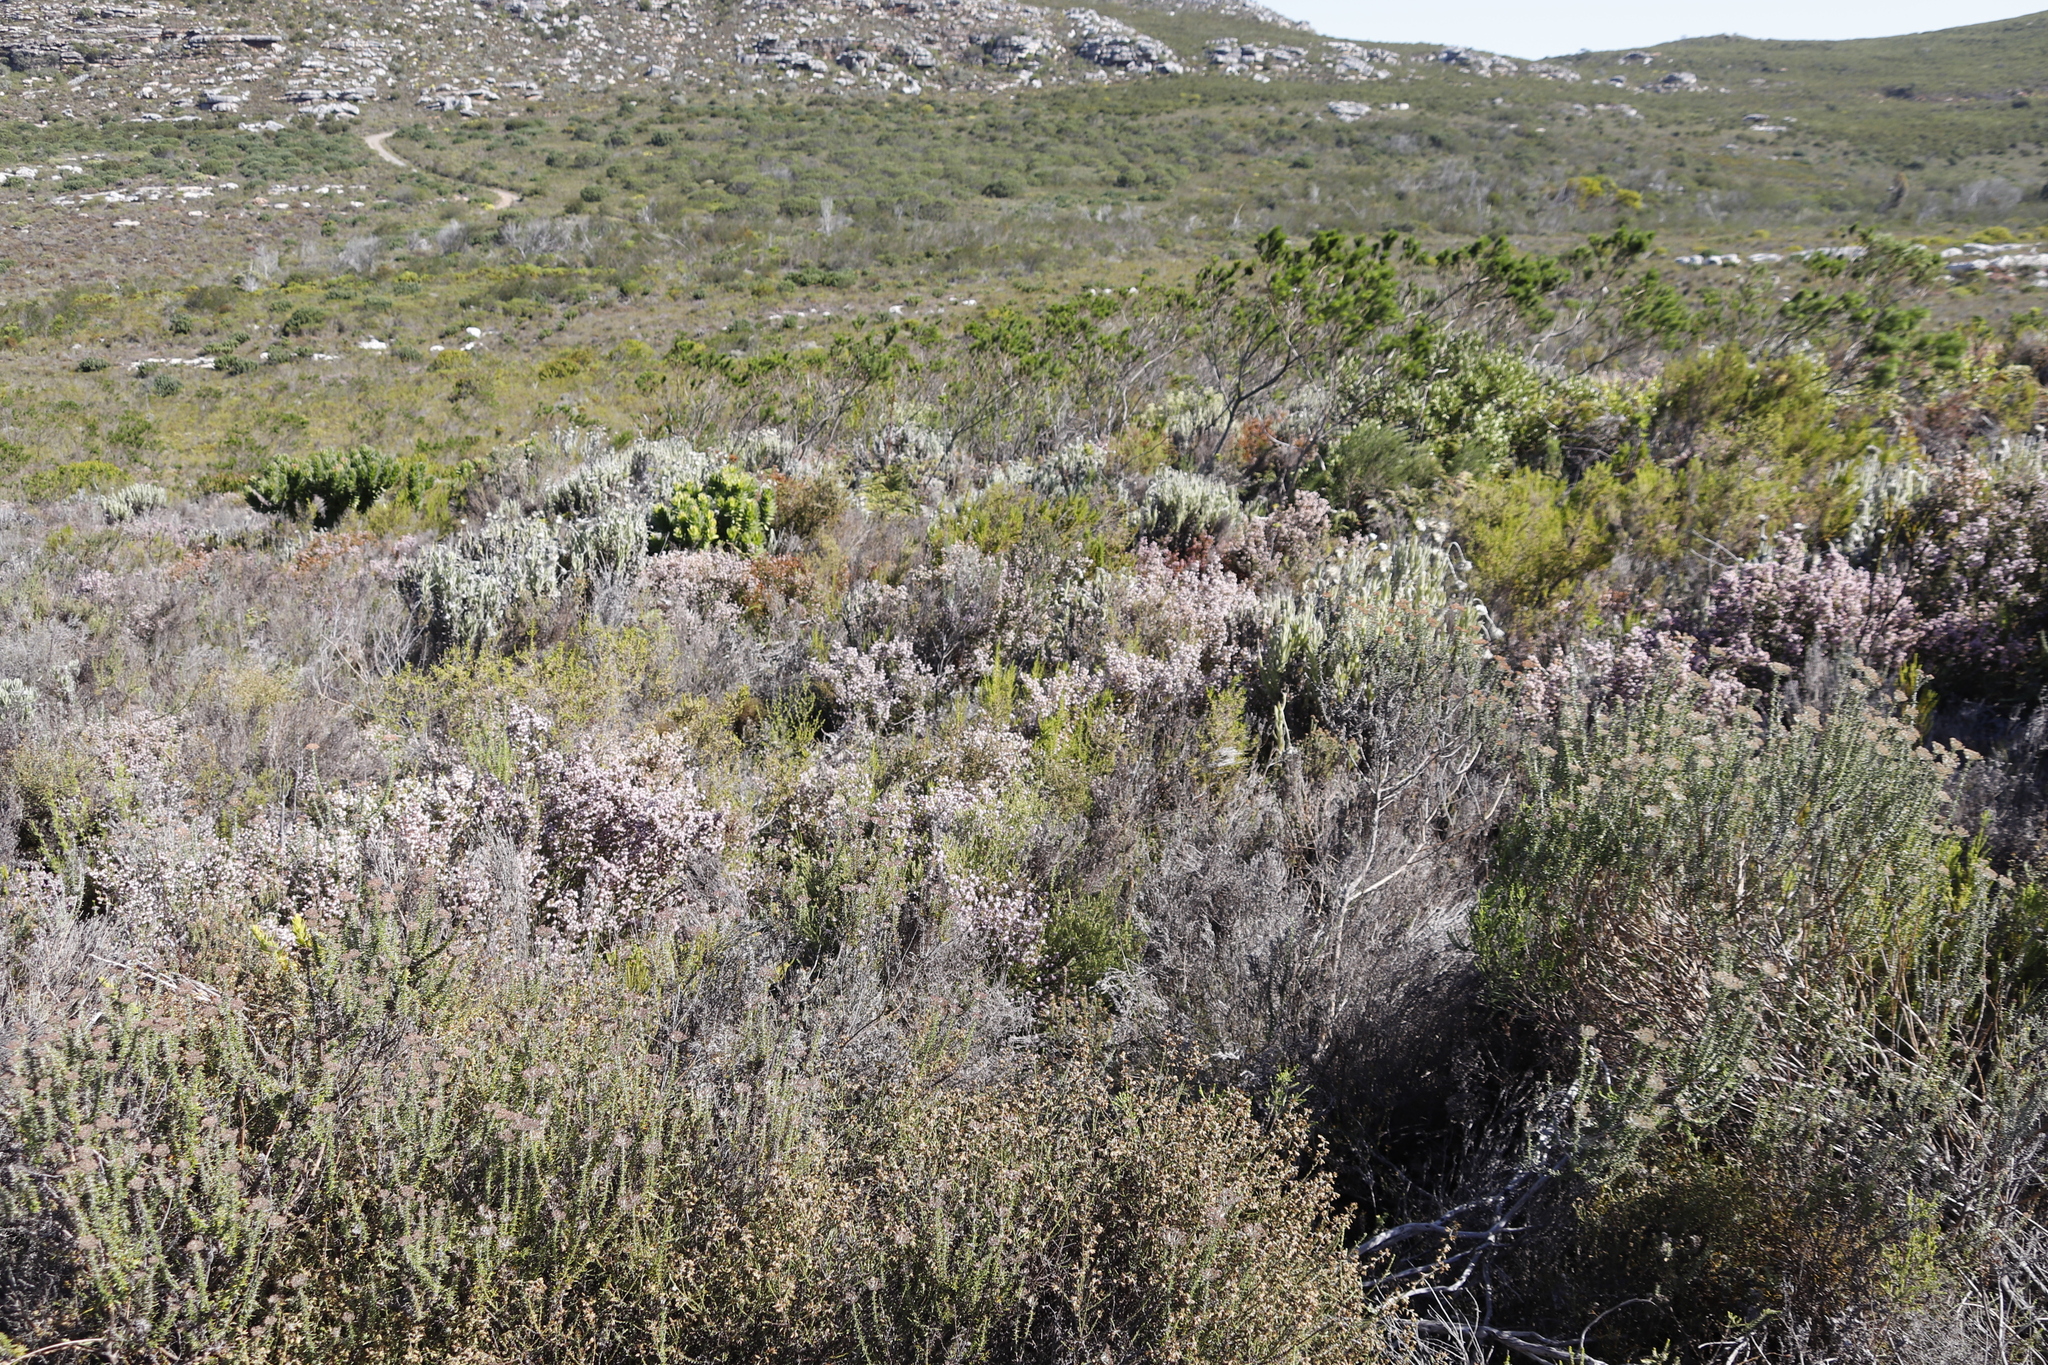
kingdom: Plantae
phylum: Tracheophyta
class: Magnoliopsida
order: Ericales
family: Ericaceae
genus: Erica
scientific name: Erica ericoides
